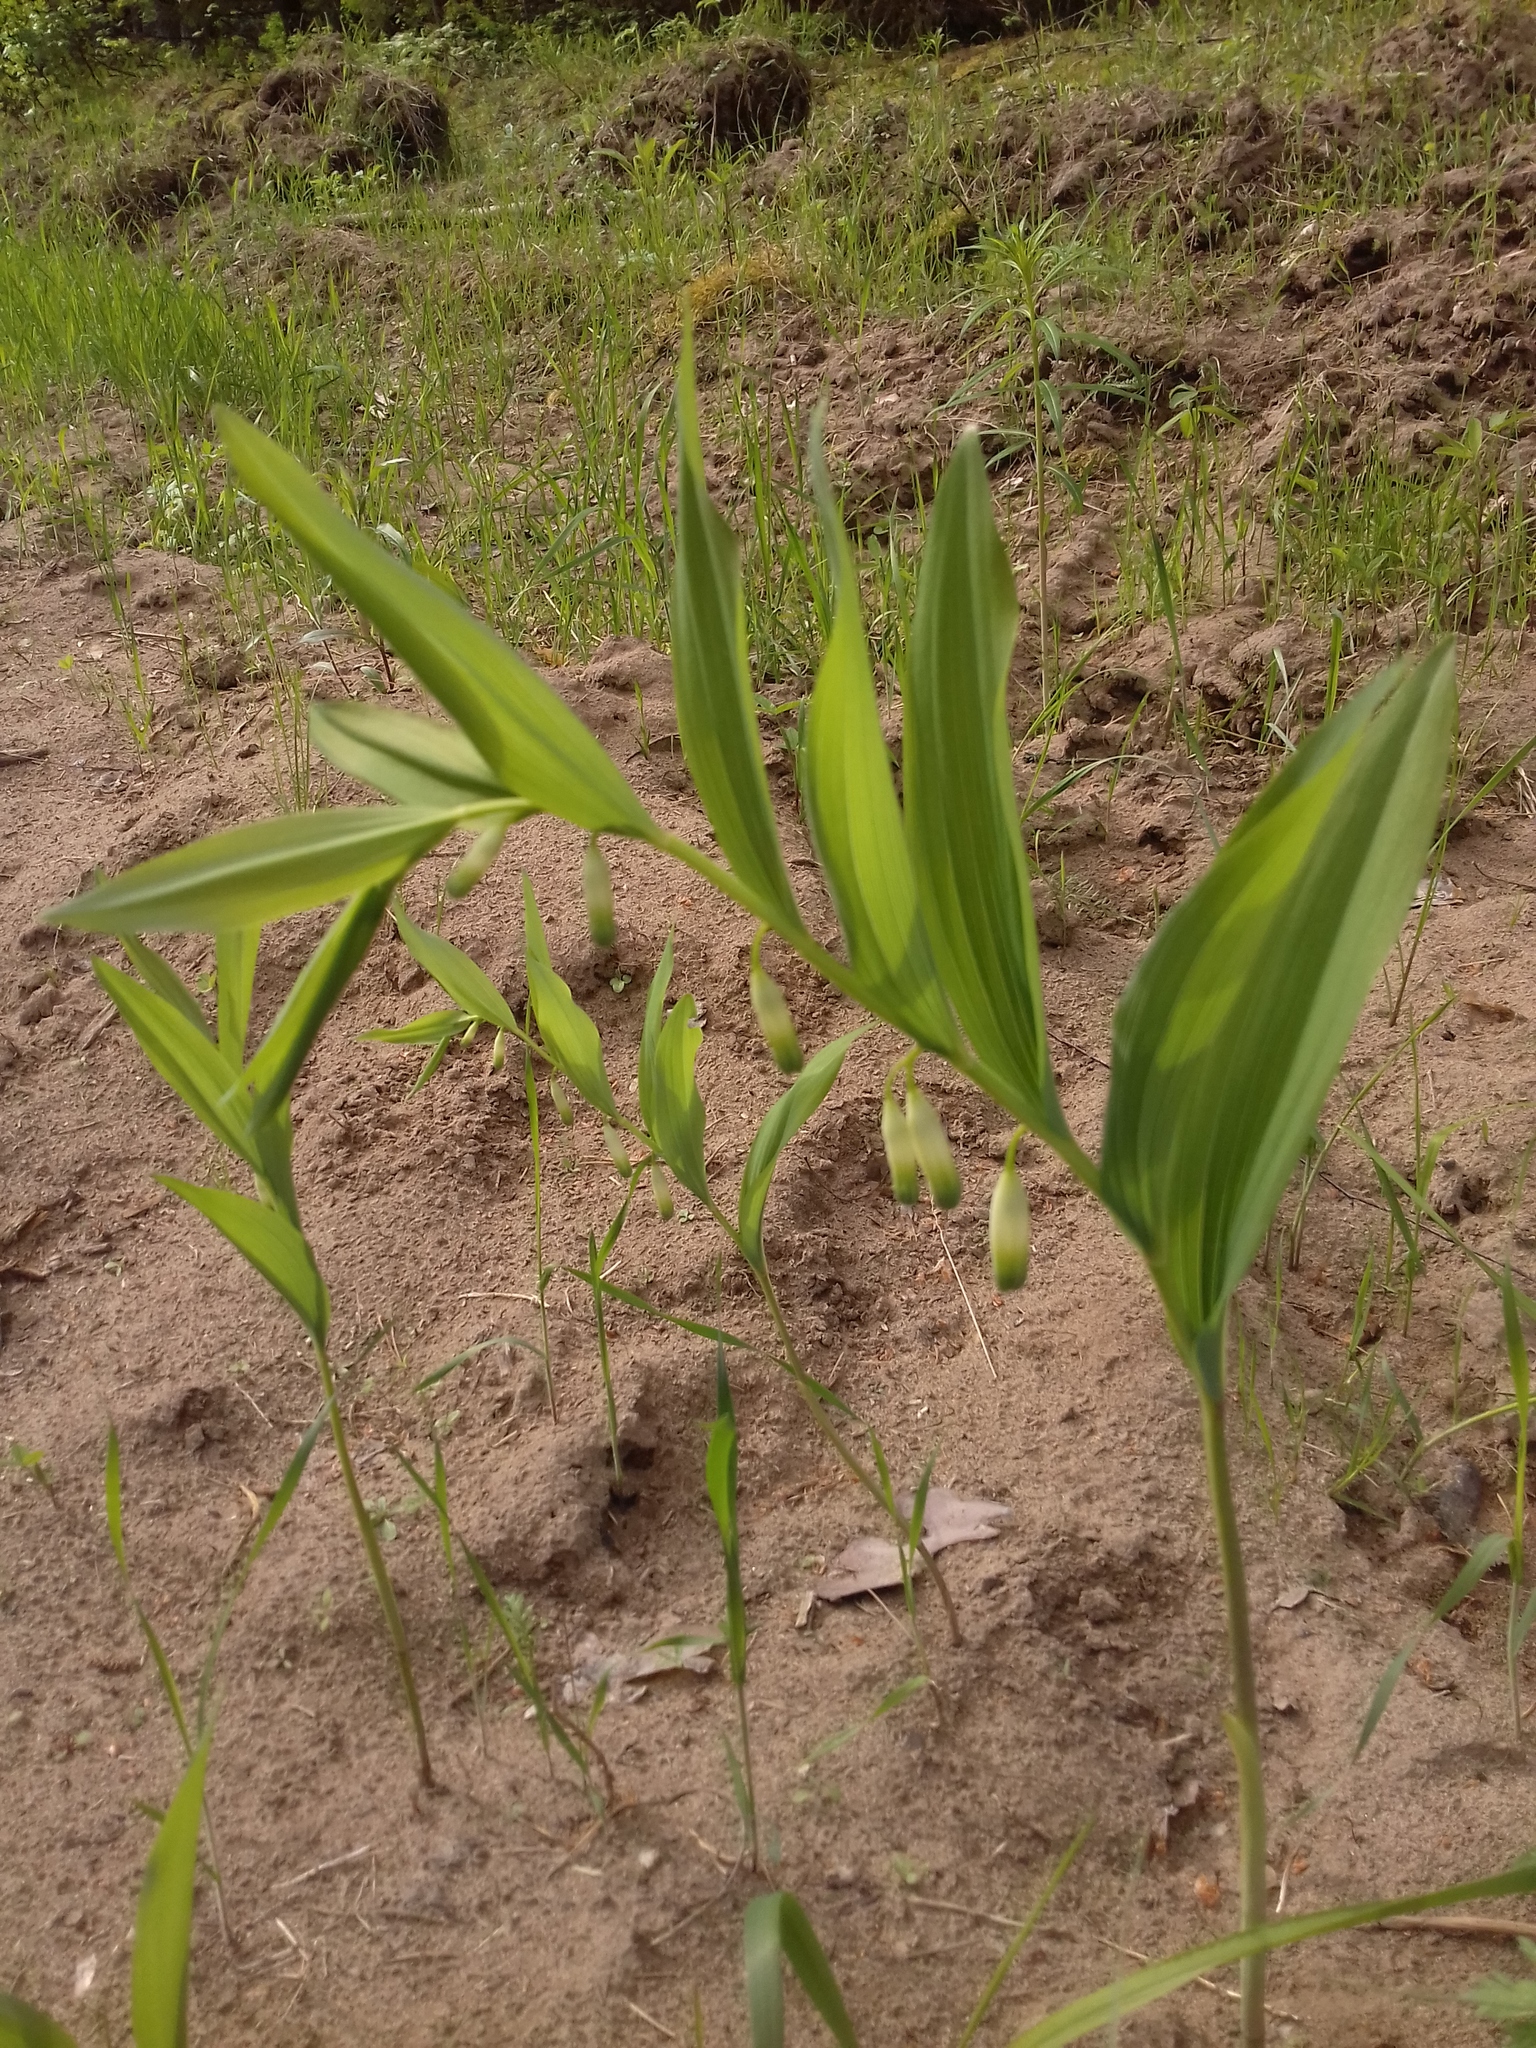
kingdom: Plantae
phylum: Tracheophyta
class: Liliopsida
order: Asparagales
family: Asparagaceae
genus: Polygonatum
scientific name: Polygonatum odoratum
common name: Angular solomon's-seal
